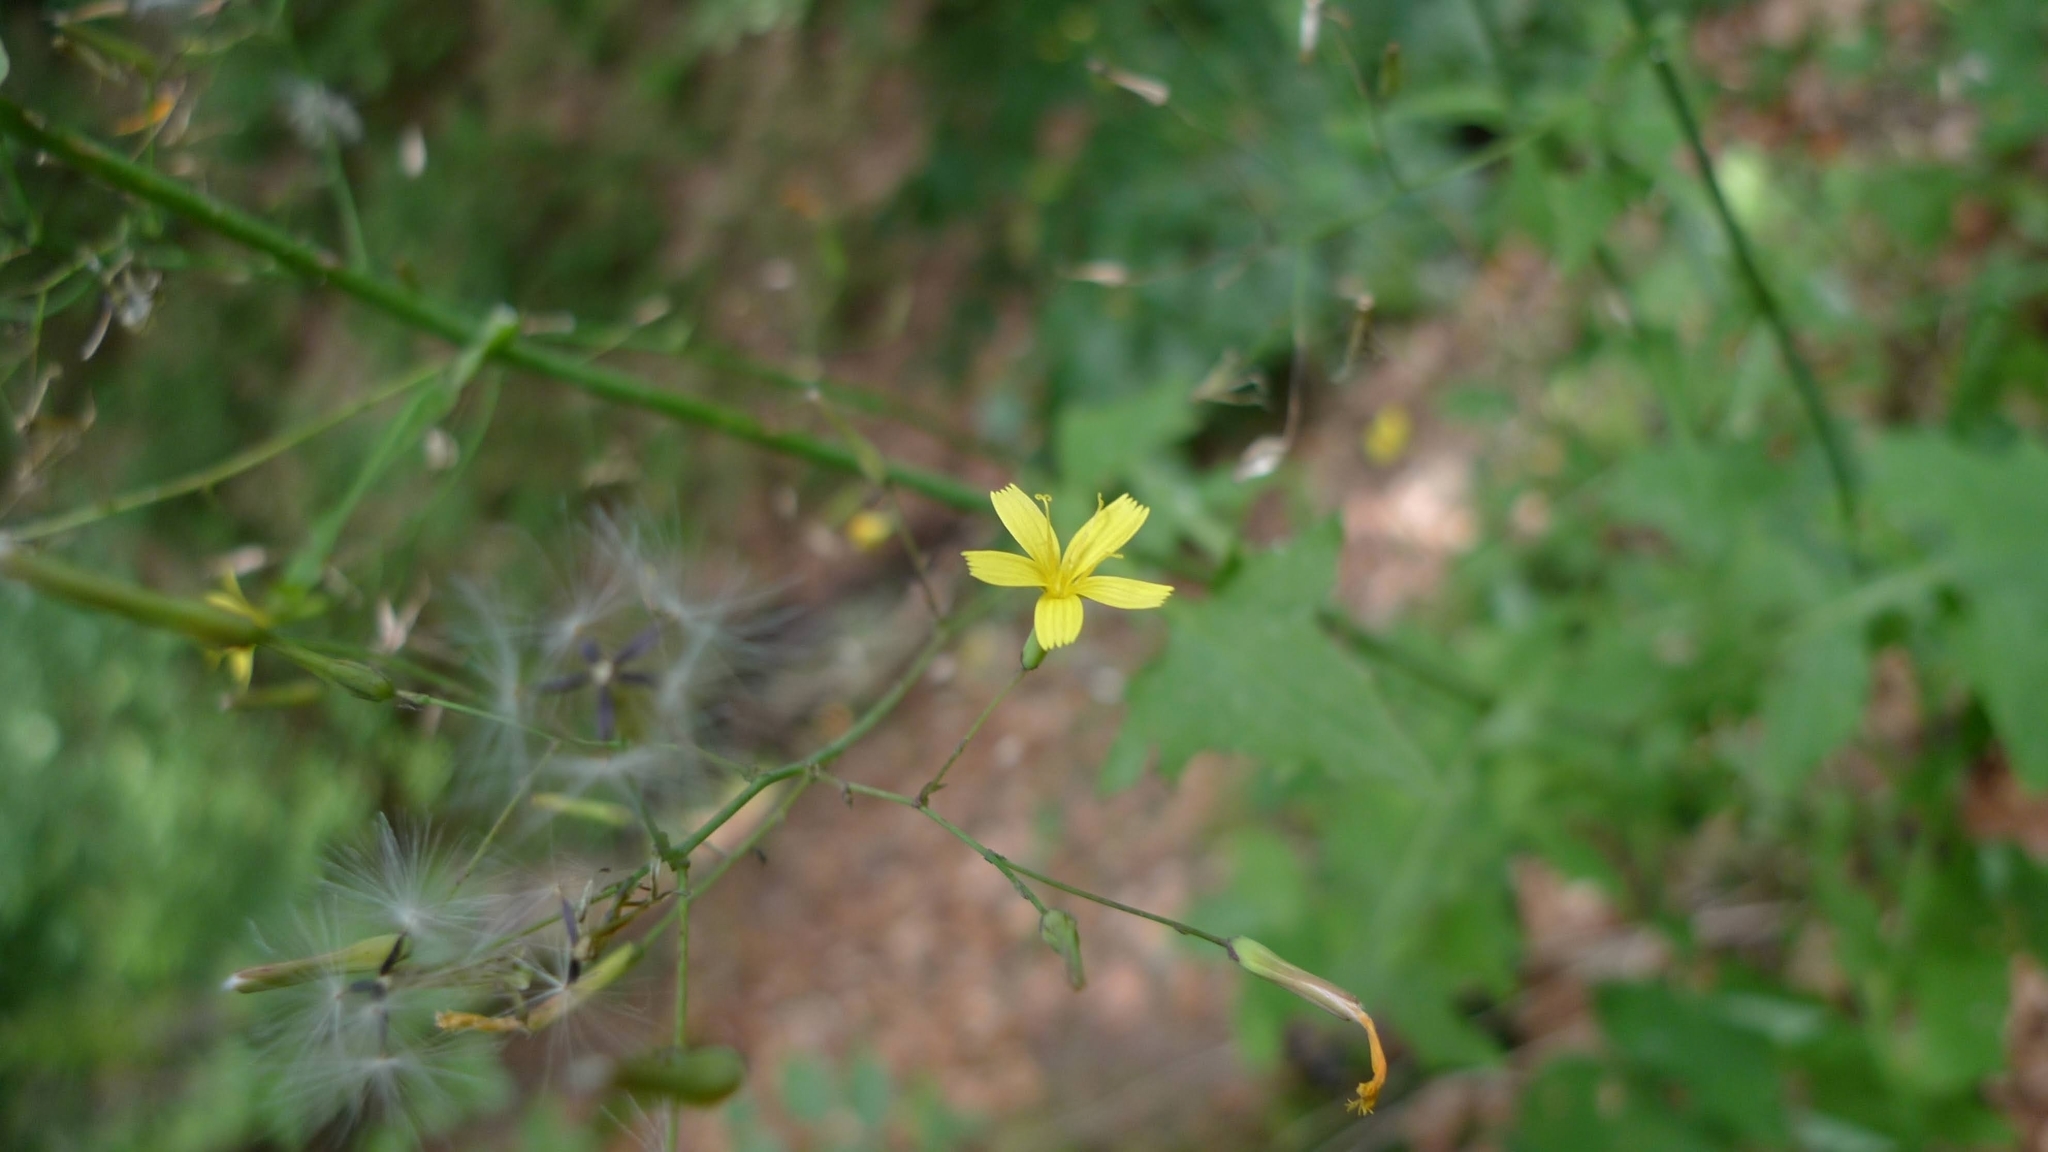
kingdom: Plantae
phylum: Tracheophyta
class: Magnoliopsida
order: Asterales
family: Asteraceae
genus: Mycelis
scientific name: Mycelis muralis
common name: Wall lettuce
